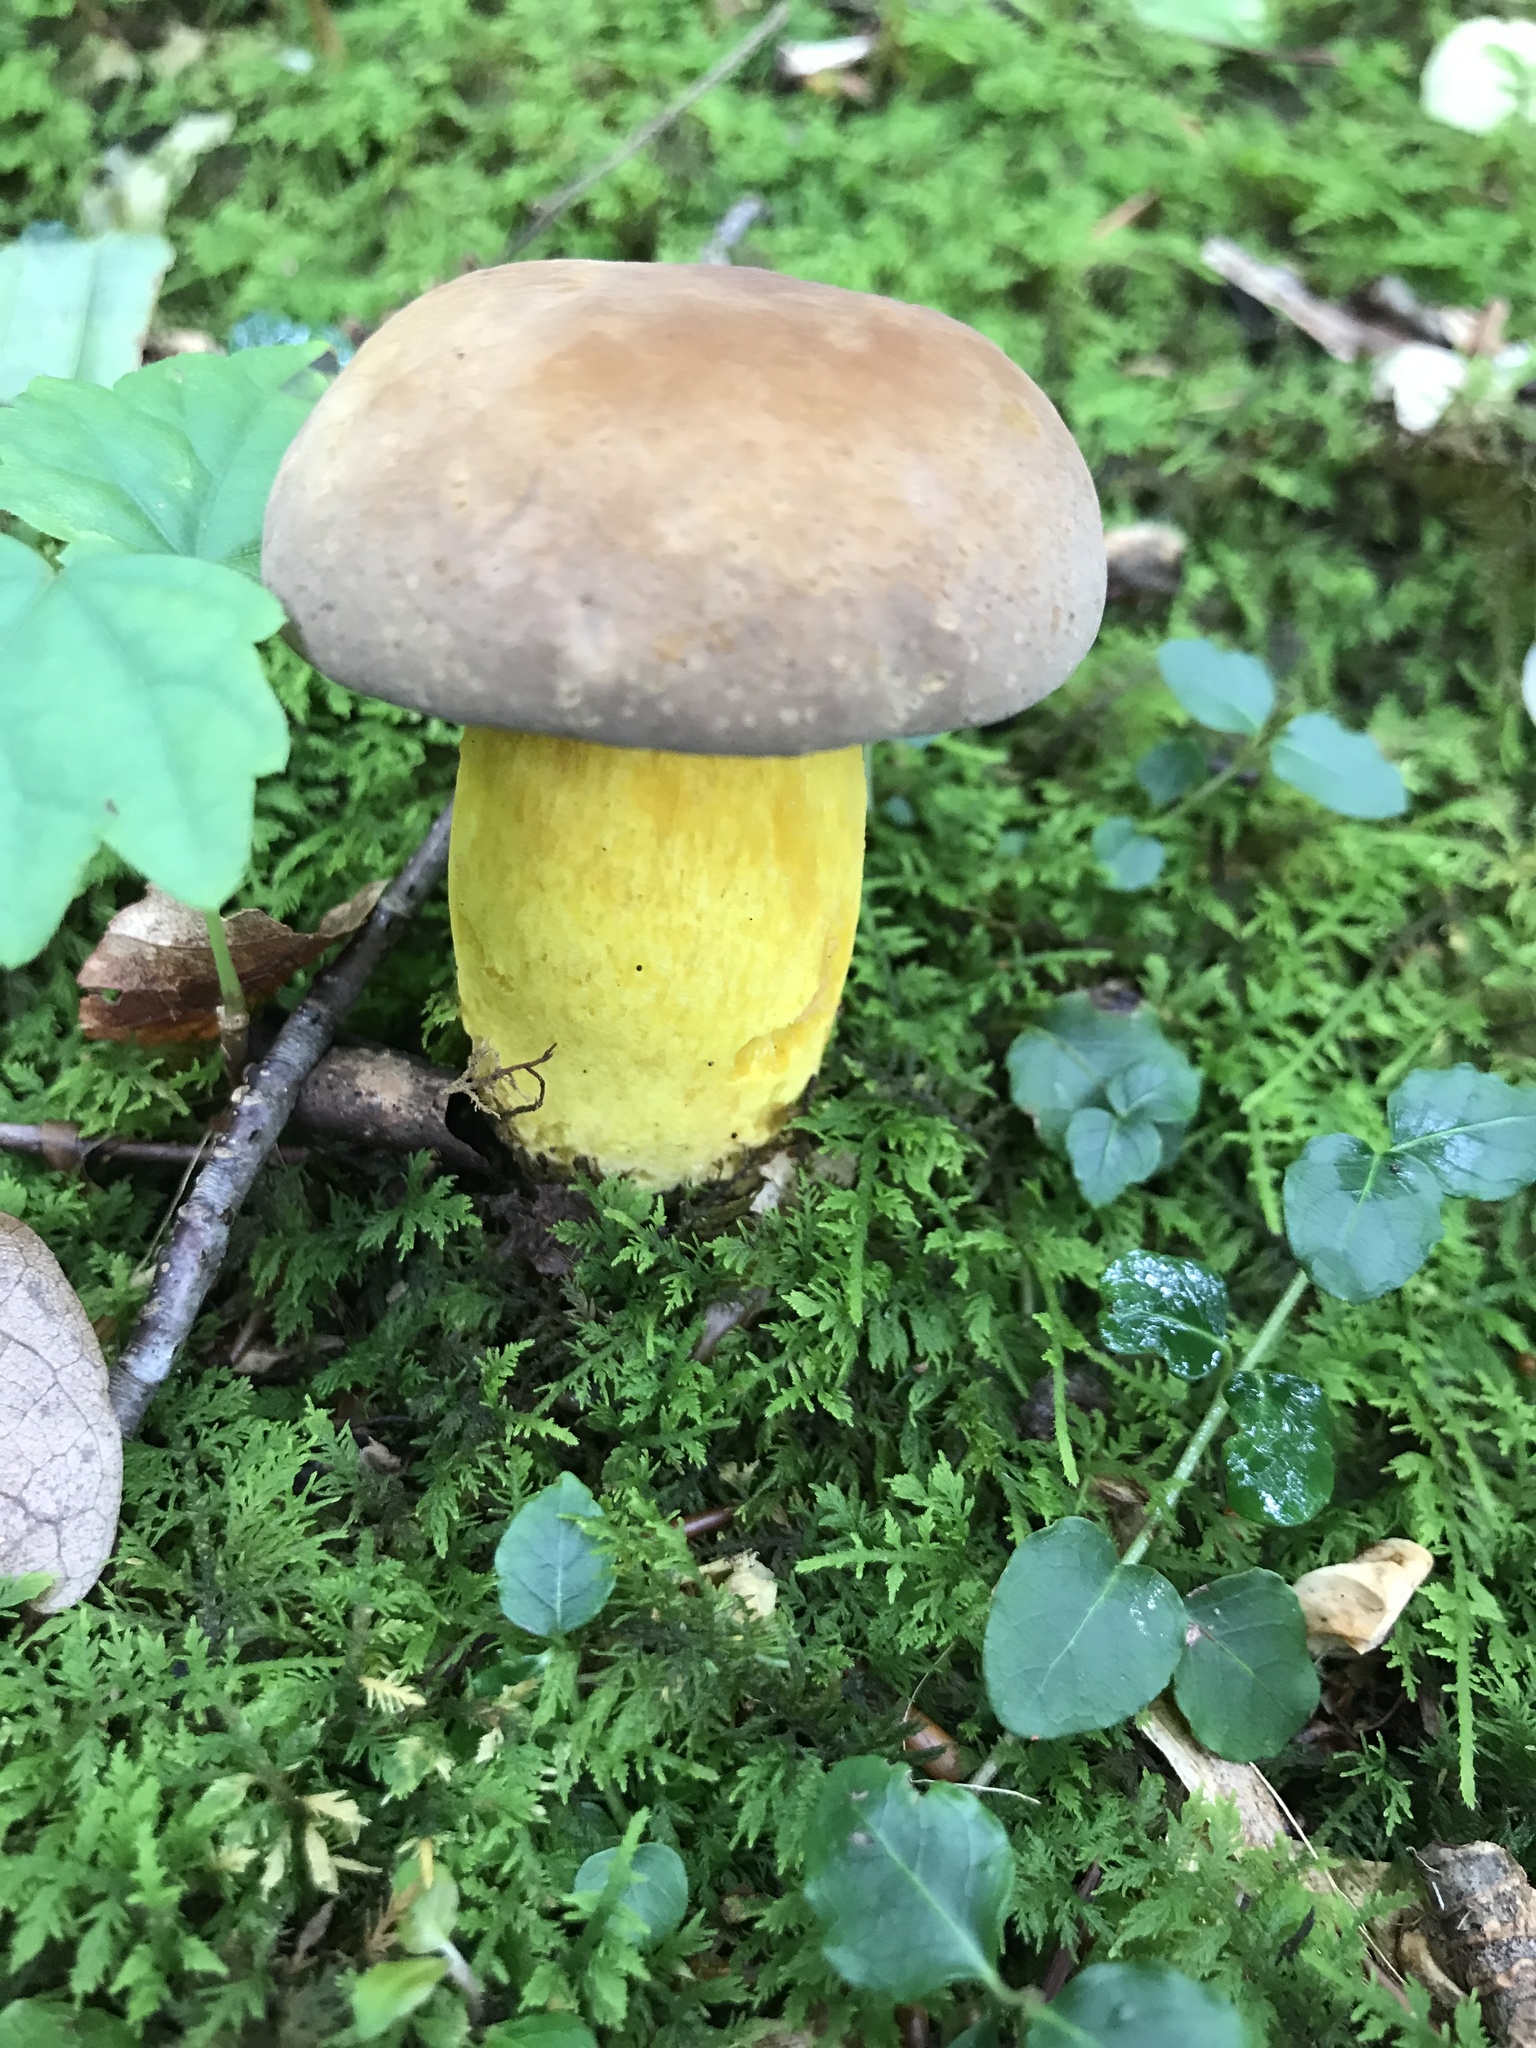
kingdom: Fungi
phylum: Basidiomycota
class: Agaricomycetes
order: Boletales
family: Boletaceae
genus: Boletus
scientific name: Boletus auripes
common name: Butter-foot bolete
